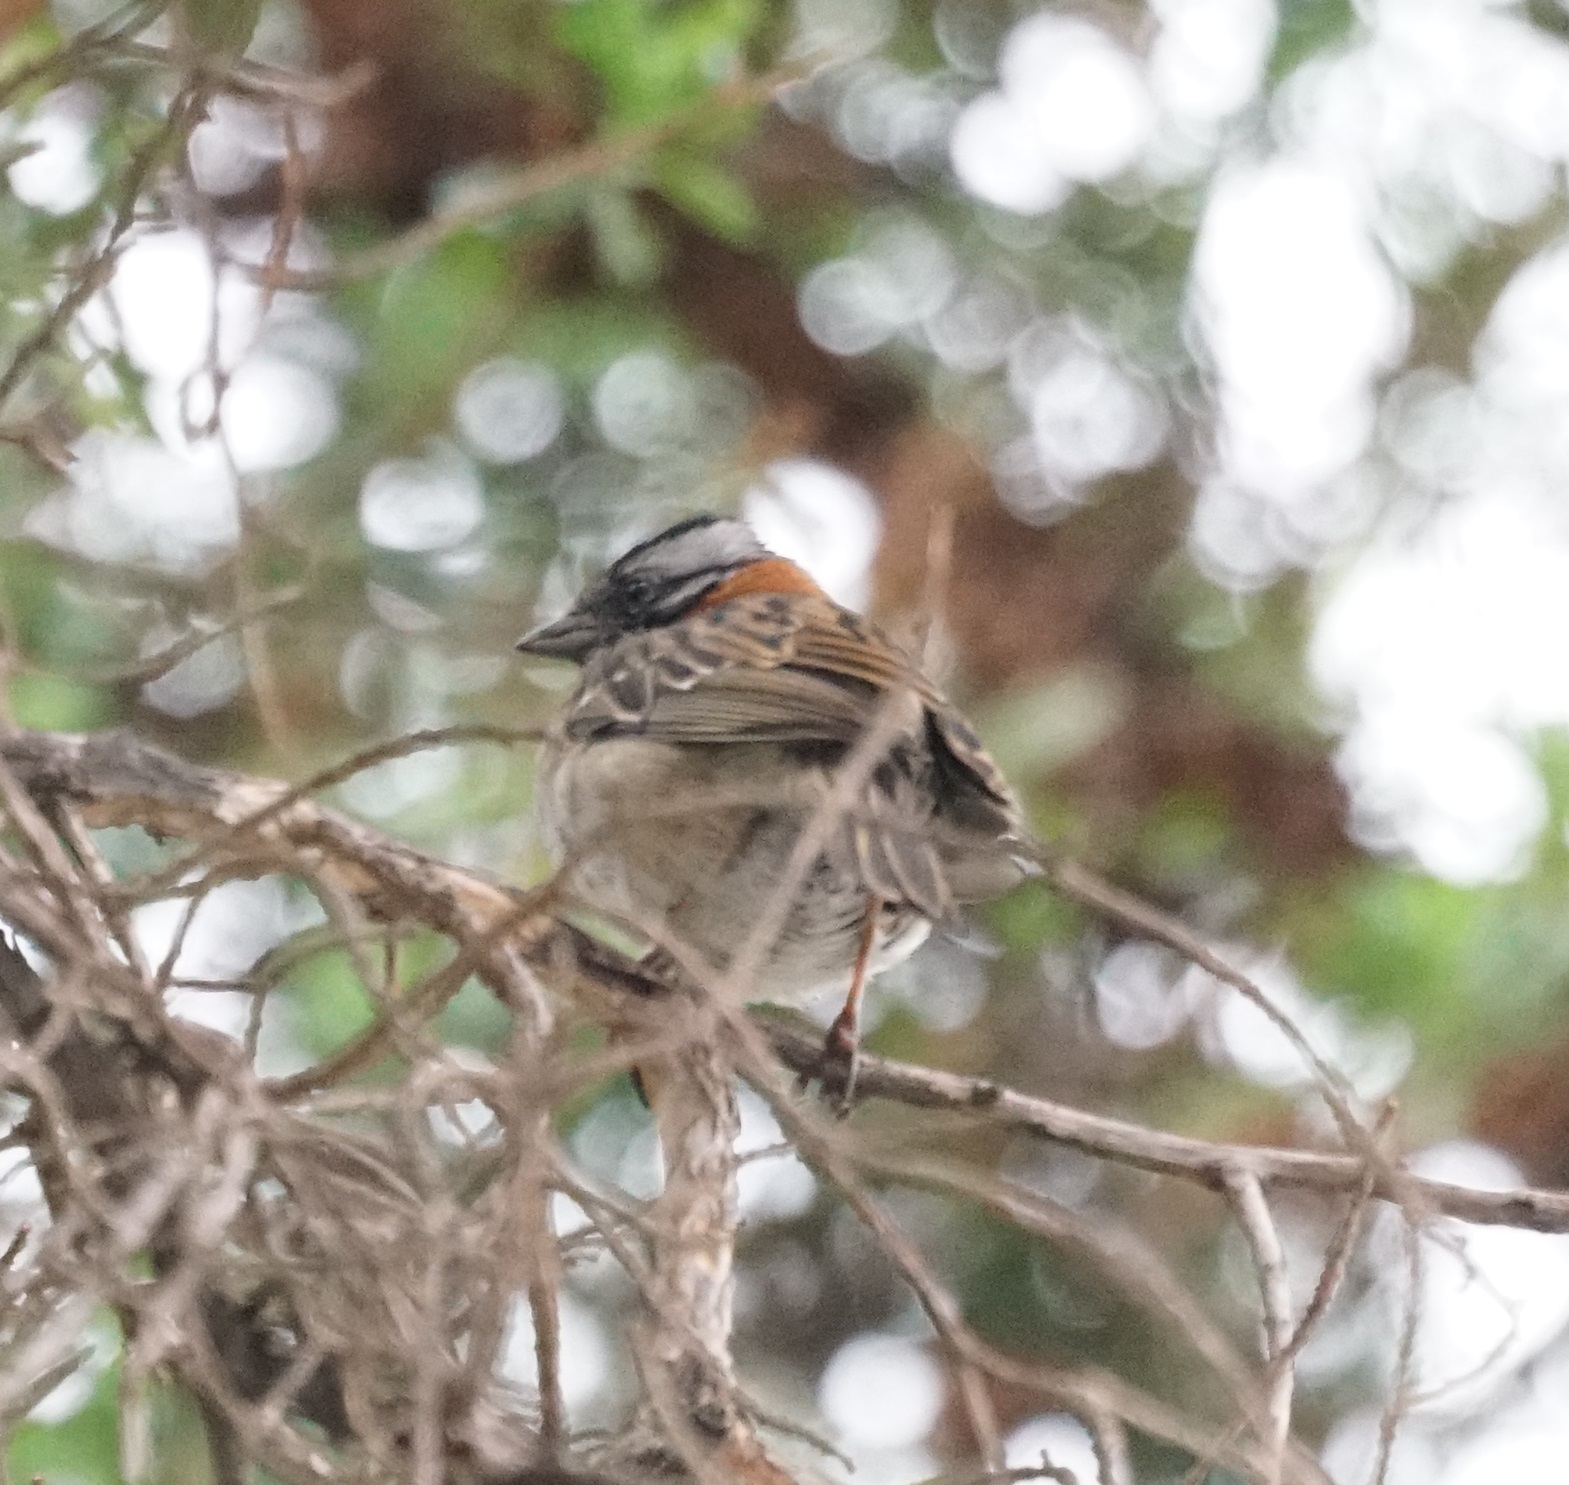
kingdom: Animalia
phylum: Chordata
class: Aves
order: Passeriformes
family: Passerellidae
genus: Zonotrichia
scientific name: Zonotrichia capensis
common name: Rufous-collared sparrow
